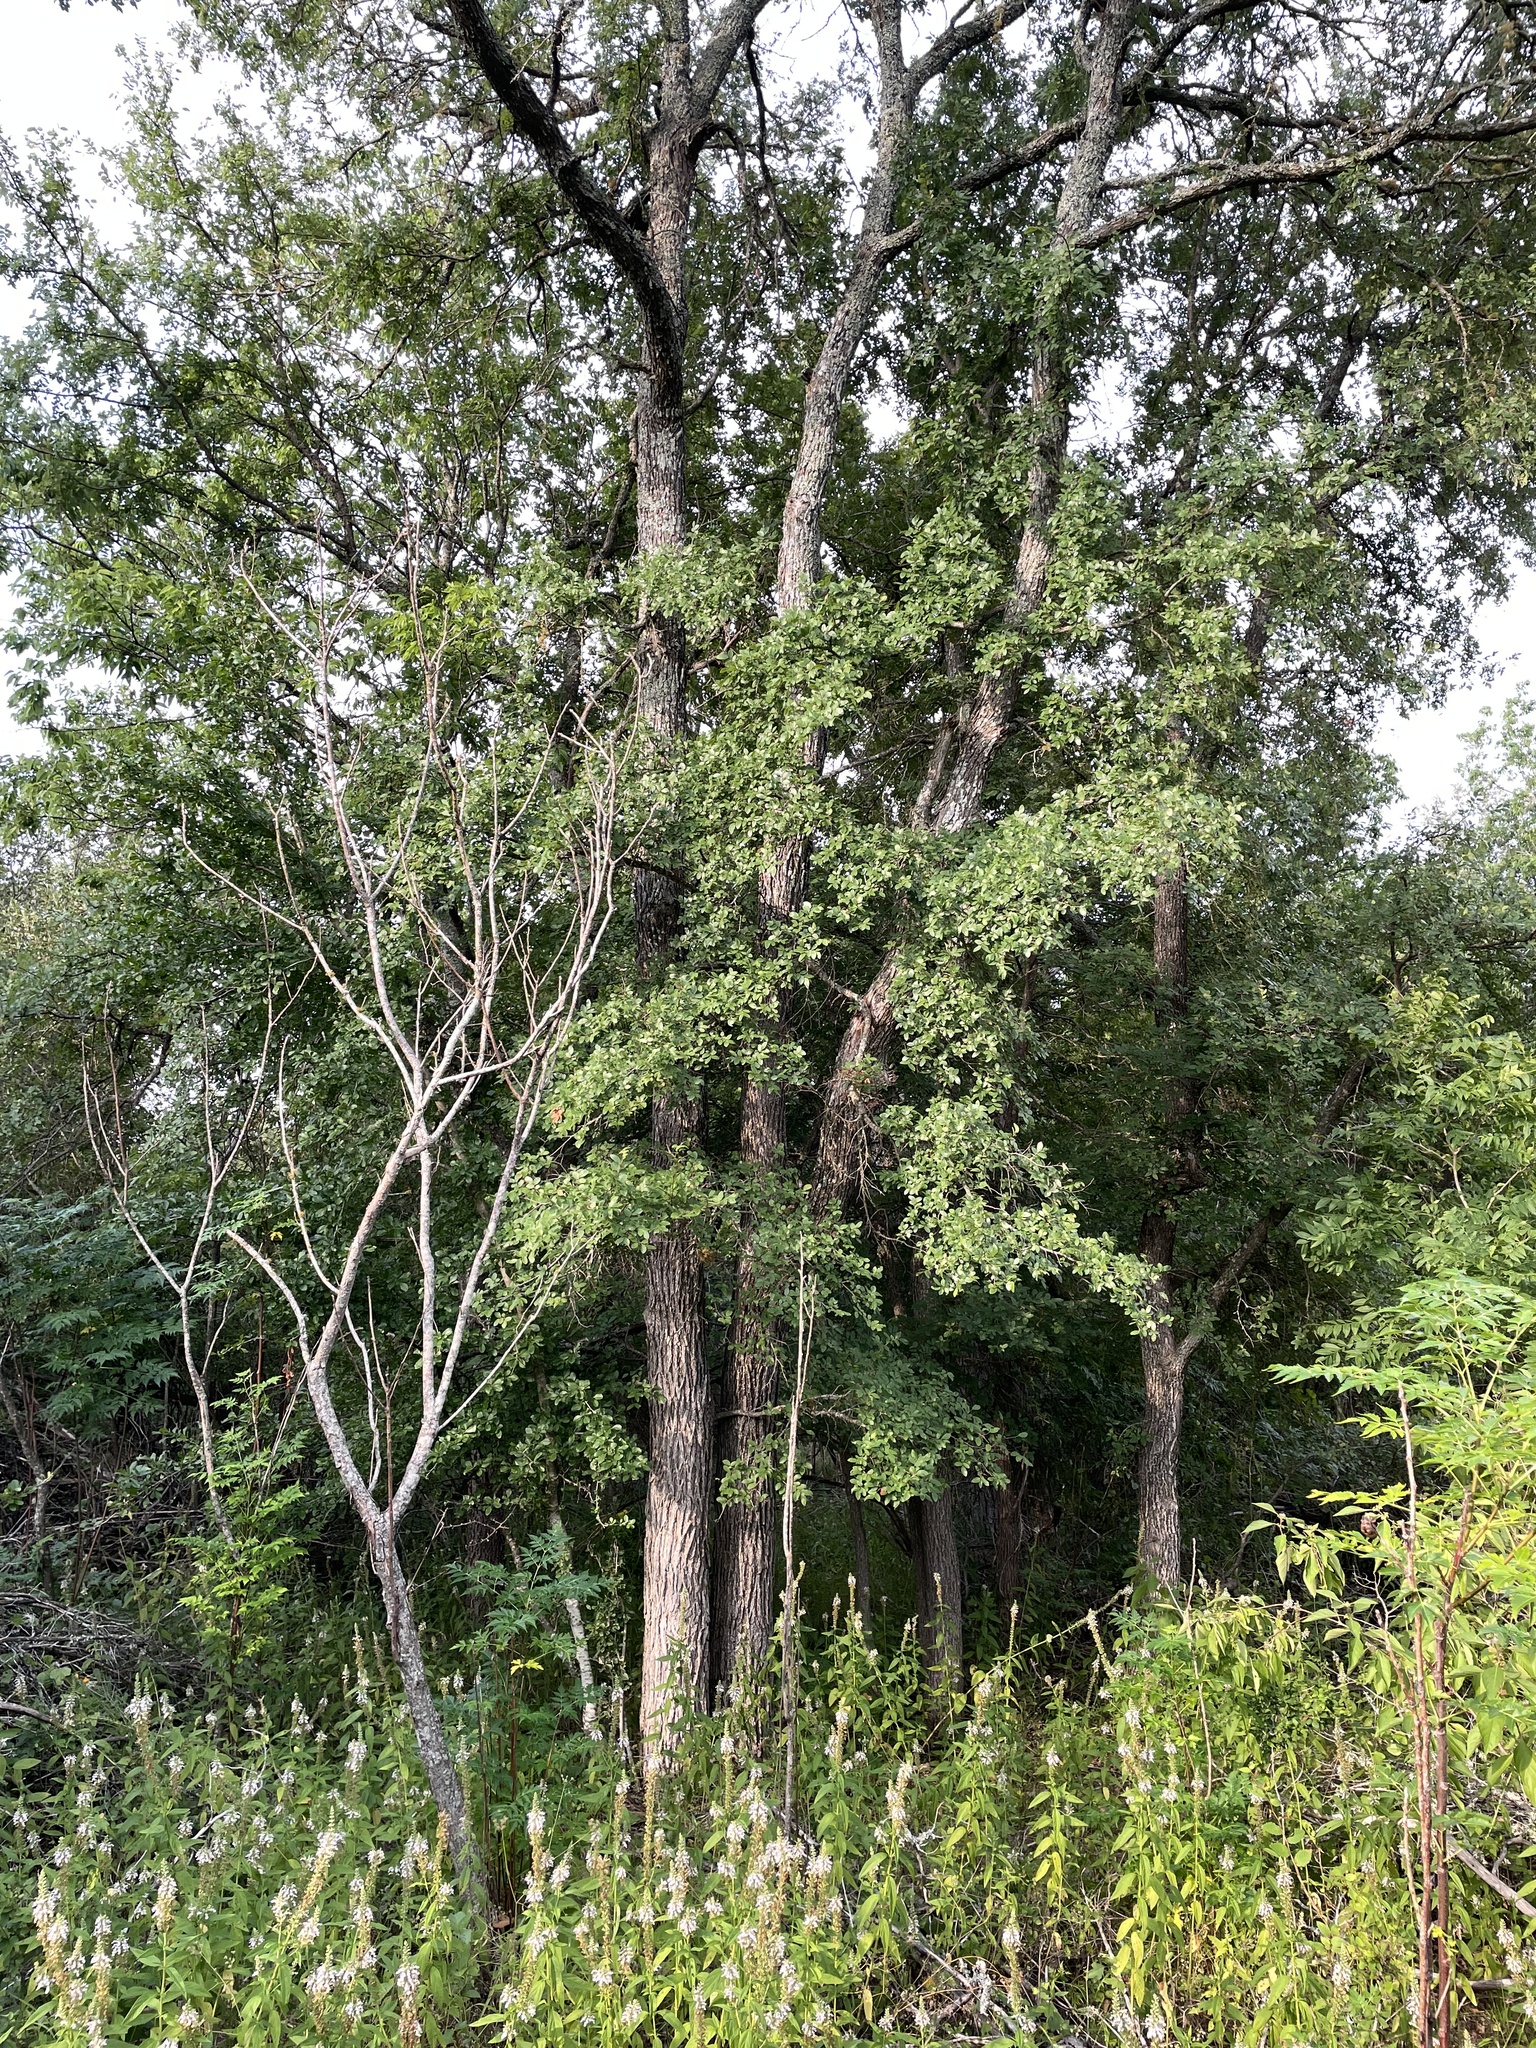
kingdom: Plantae
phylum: Tracheophyta
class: Magnoliopsida
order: Rosales
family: Ulmaceae
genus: Ulmus
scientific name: Ulmus crassifolia
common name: Basket elm
